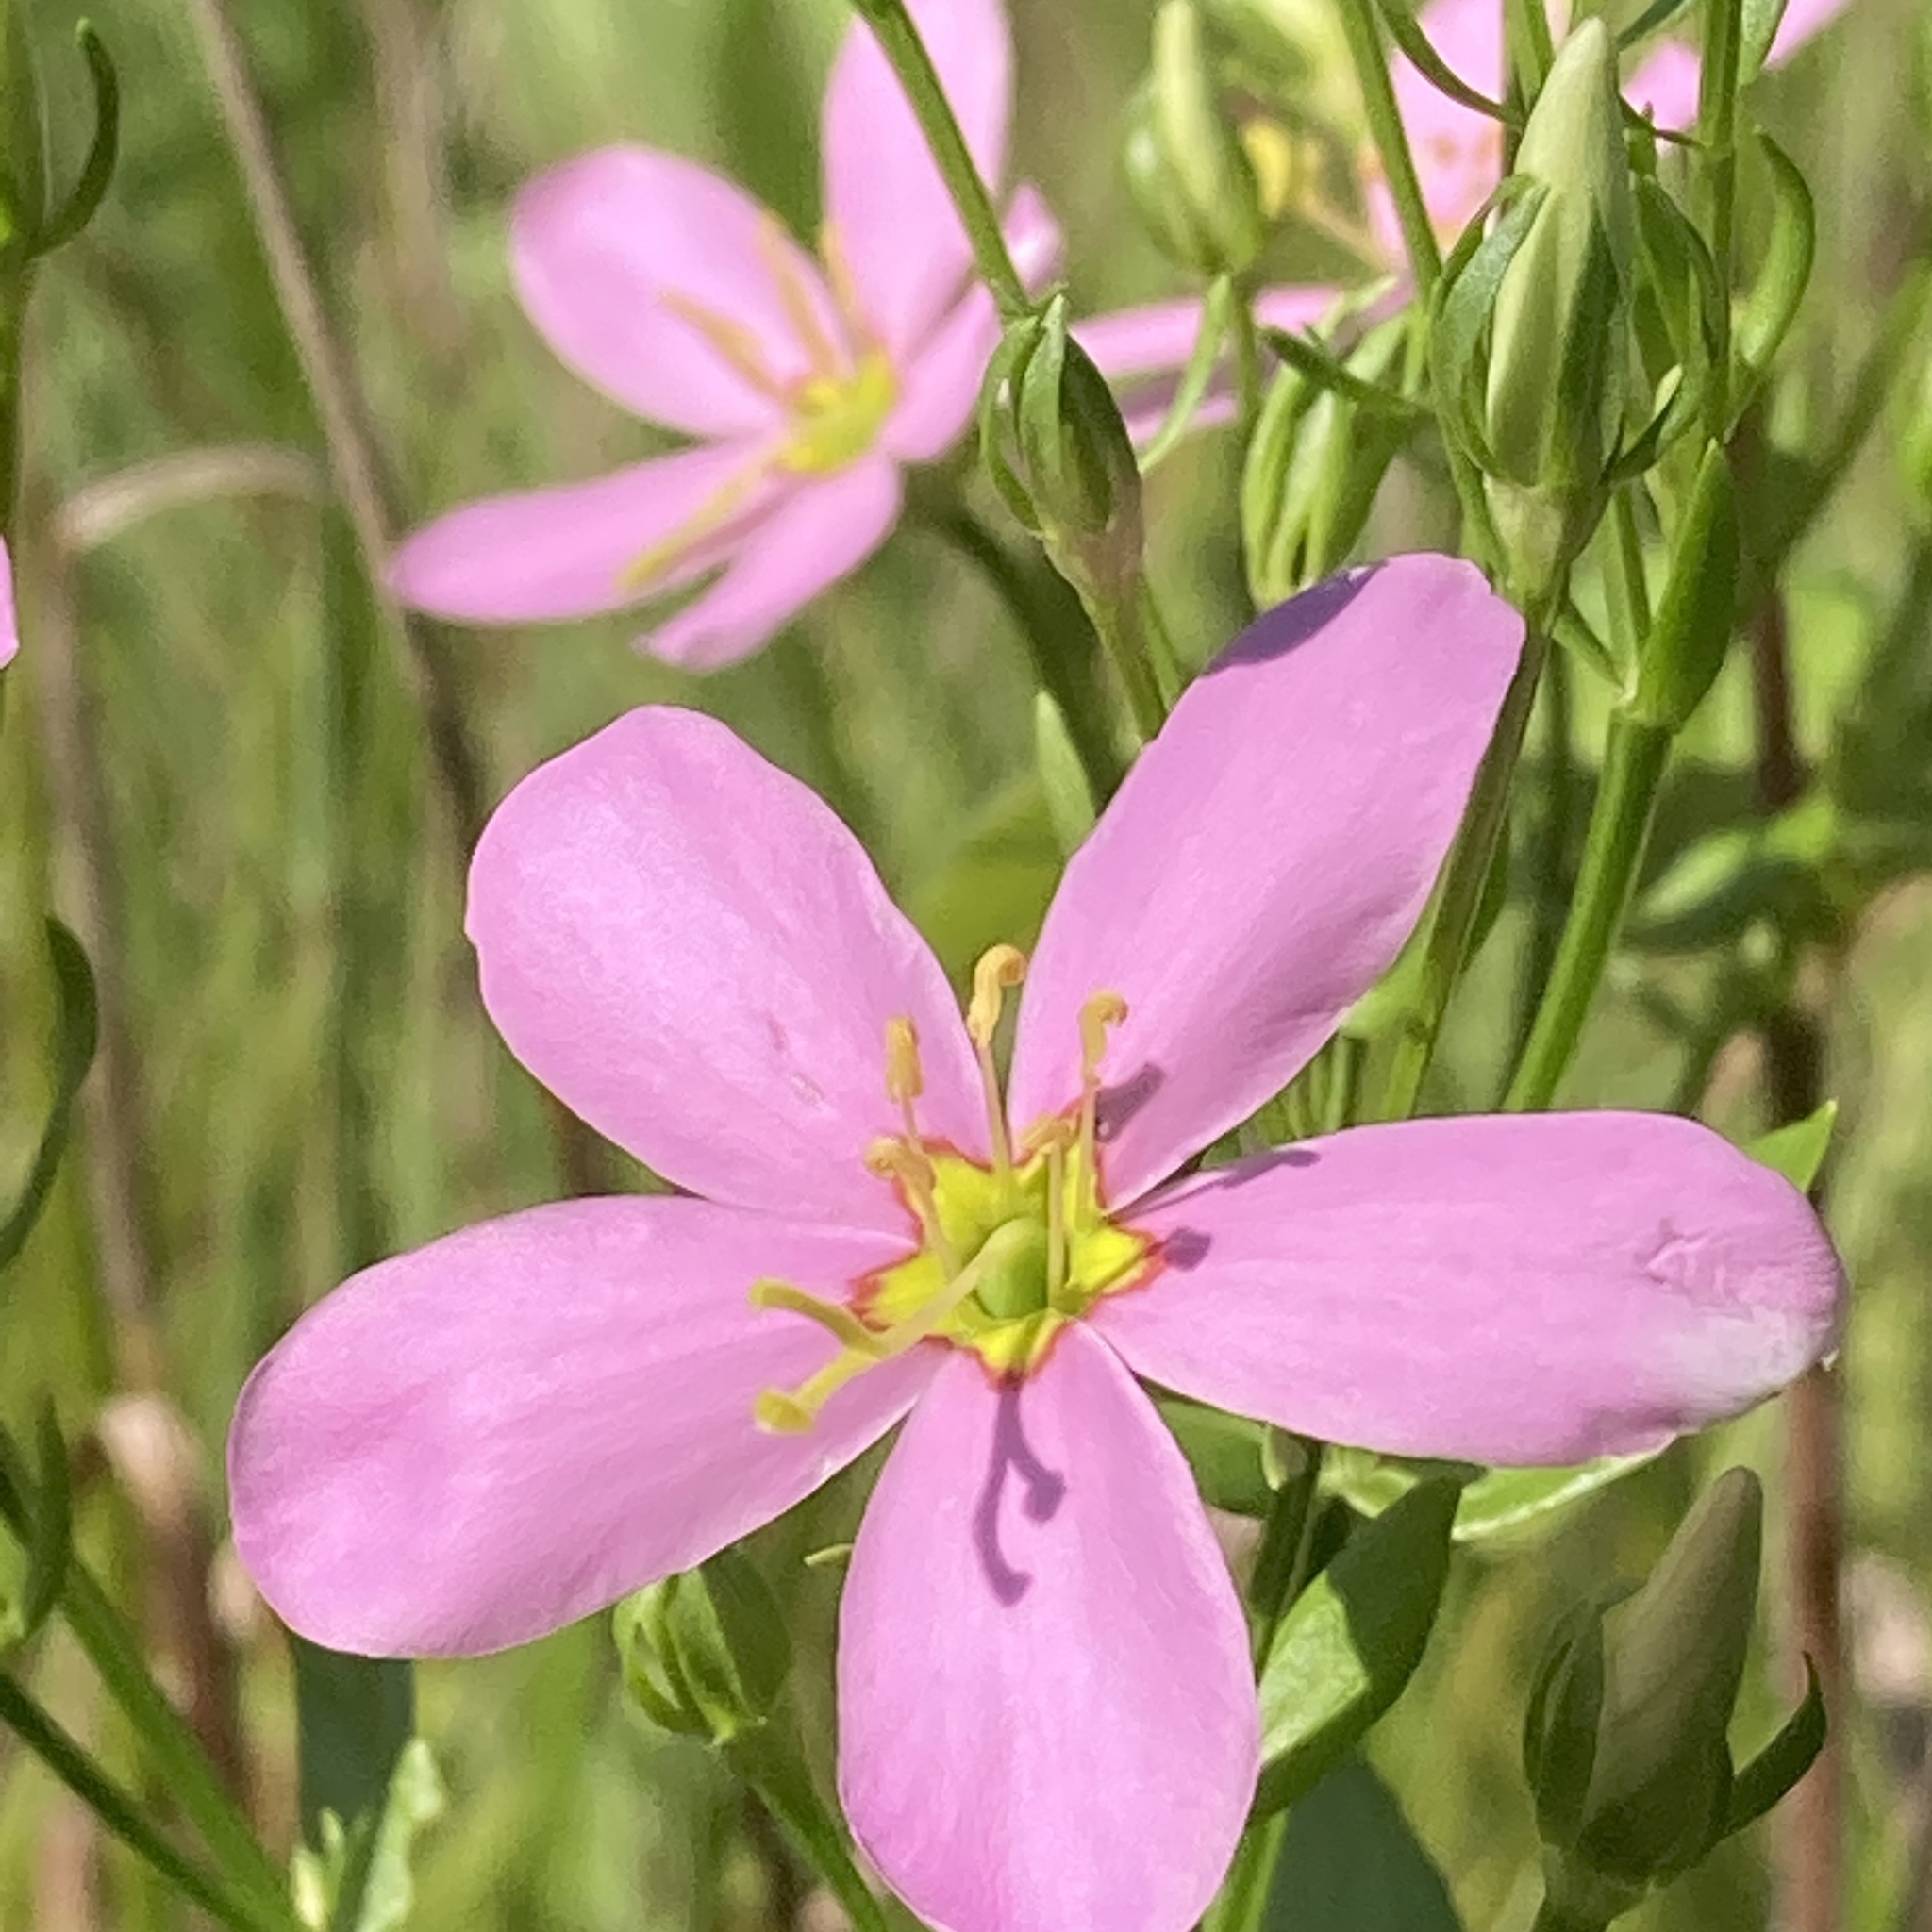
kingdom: Plantae
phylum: Tracheophyta
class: Magnoliopsida
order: Gentianales
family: Gentianaceae
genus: Sabatia
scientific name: Sabatia angularis
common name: Rose-pink
